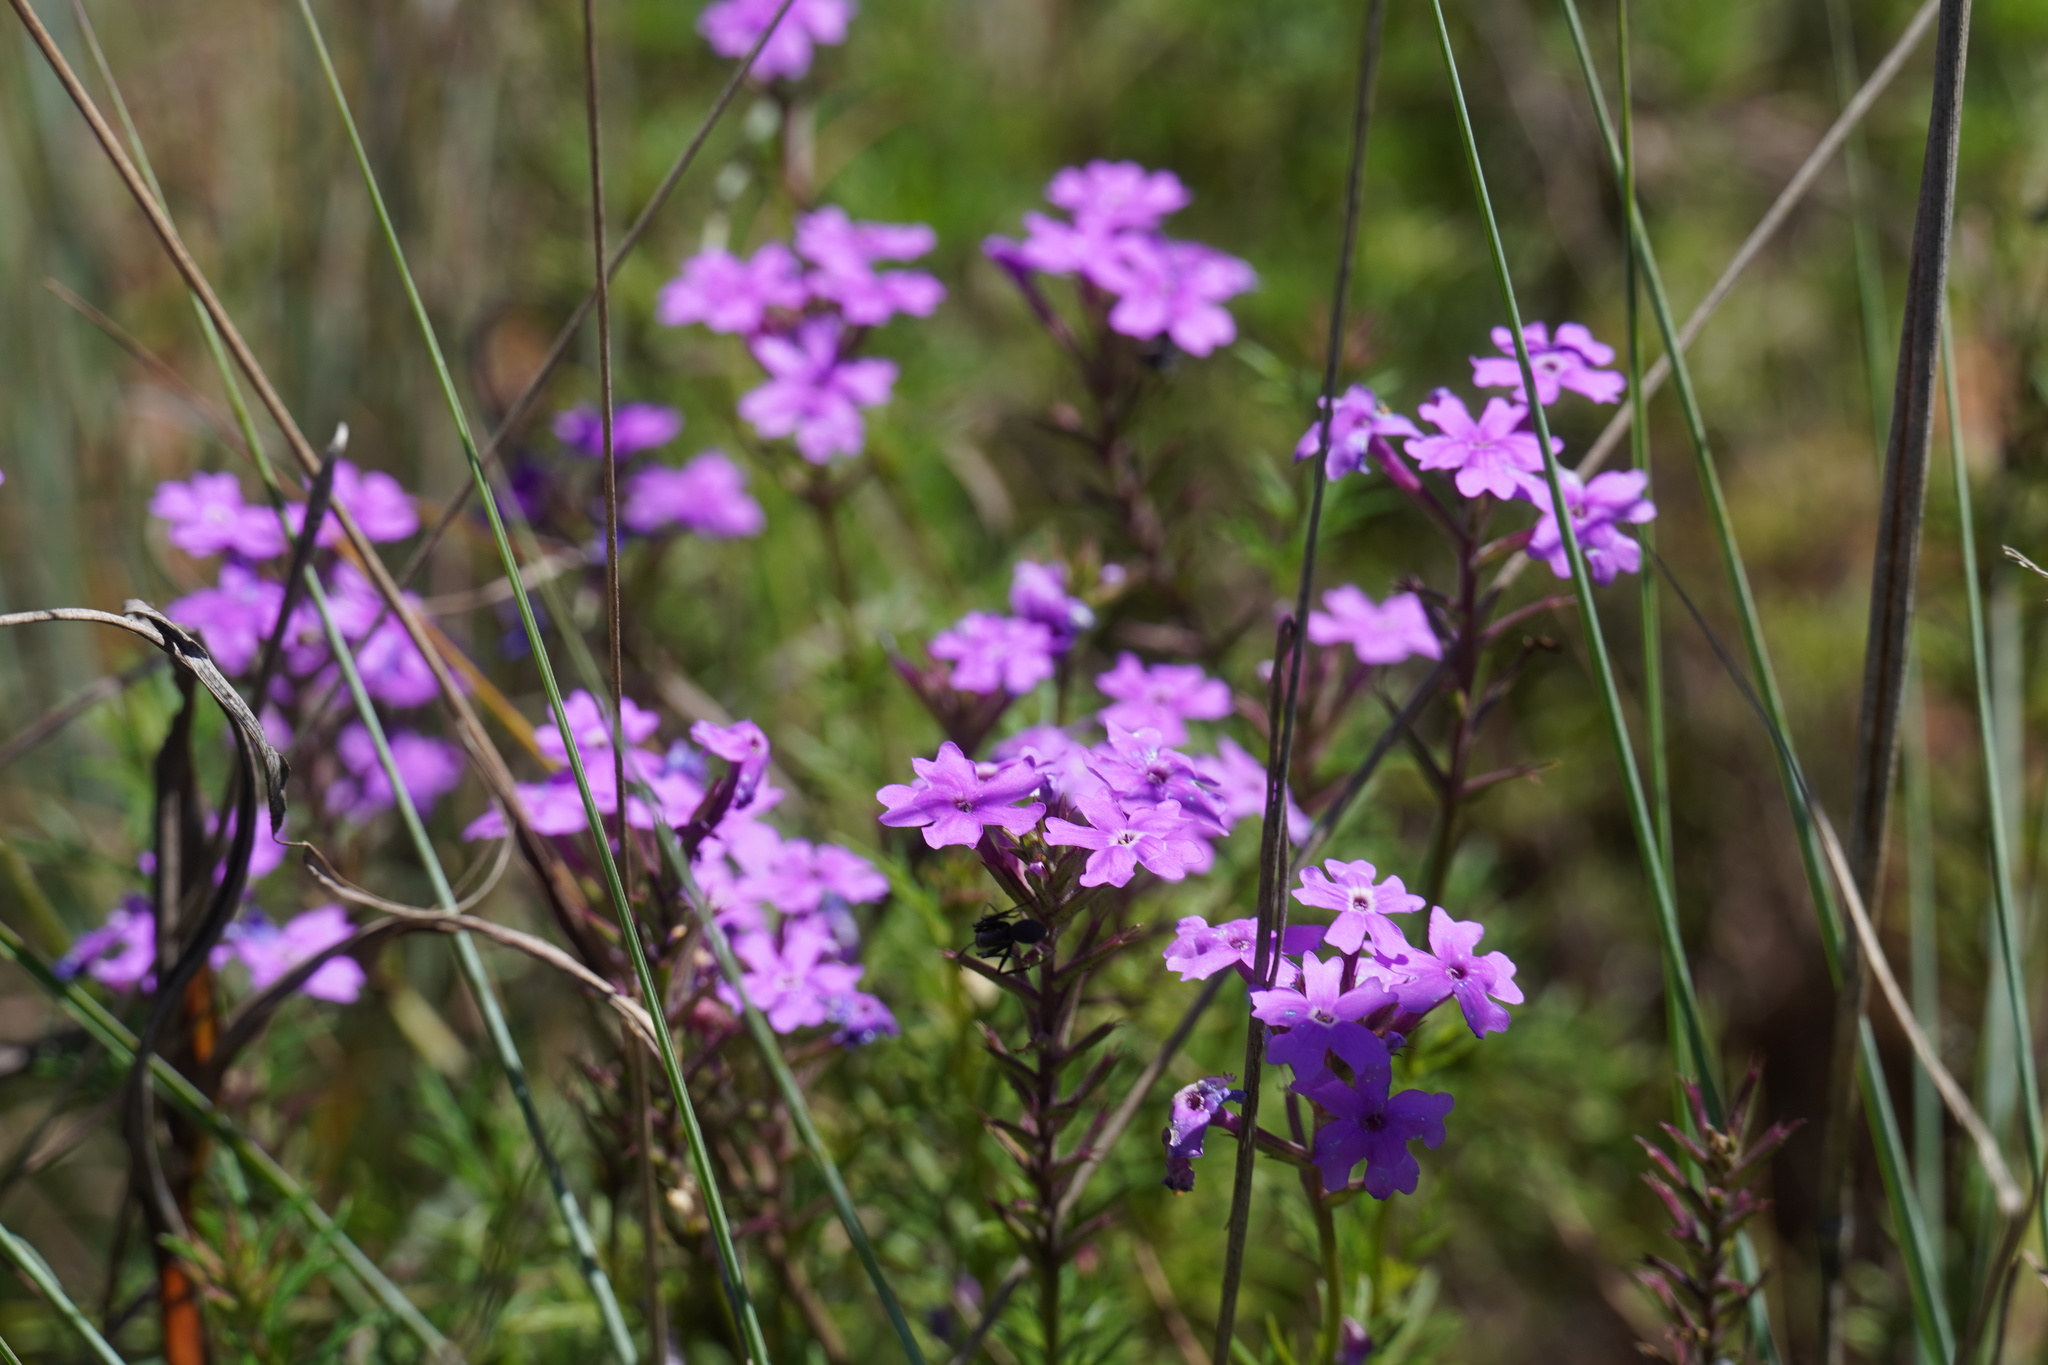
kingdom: Plantae
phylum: Tracheophyta
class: Magnoliopsida
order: Lamiales
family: Verbenaceae
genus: Verbena
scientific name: Verbena aristigera
